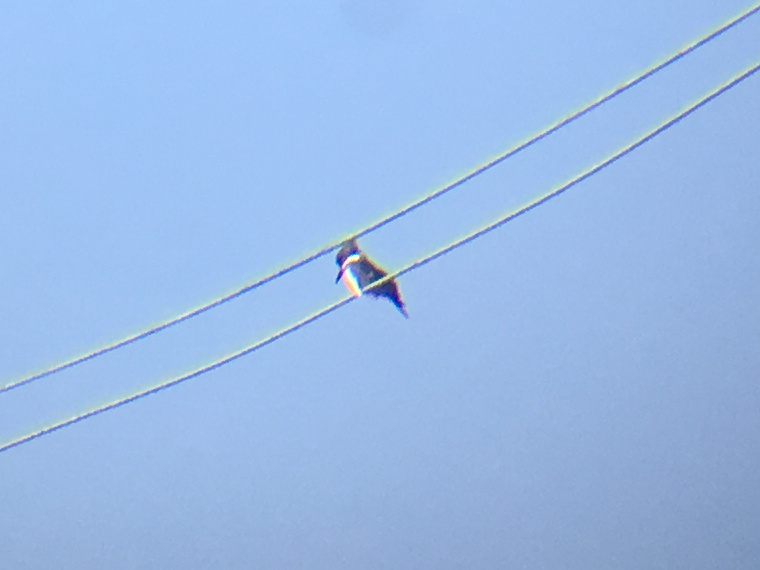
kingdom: Animalia
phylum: Chordata
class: Aves
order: Coraciiformes
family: Alcedinidae
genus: Megaceryle
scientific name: Megaceryle alcyon
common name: Belted kingfisher
